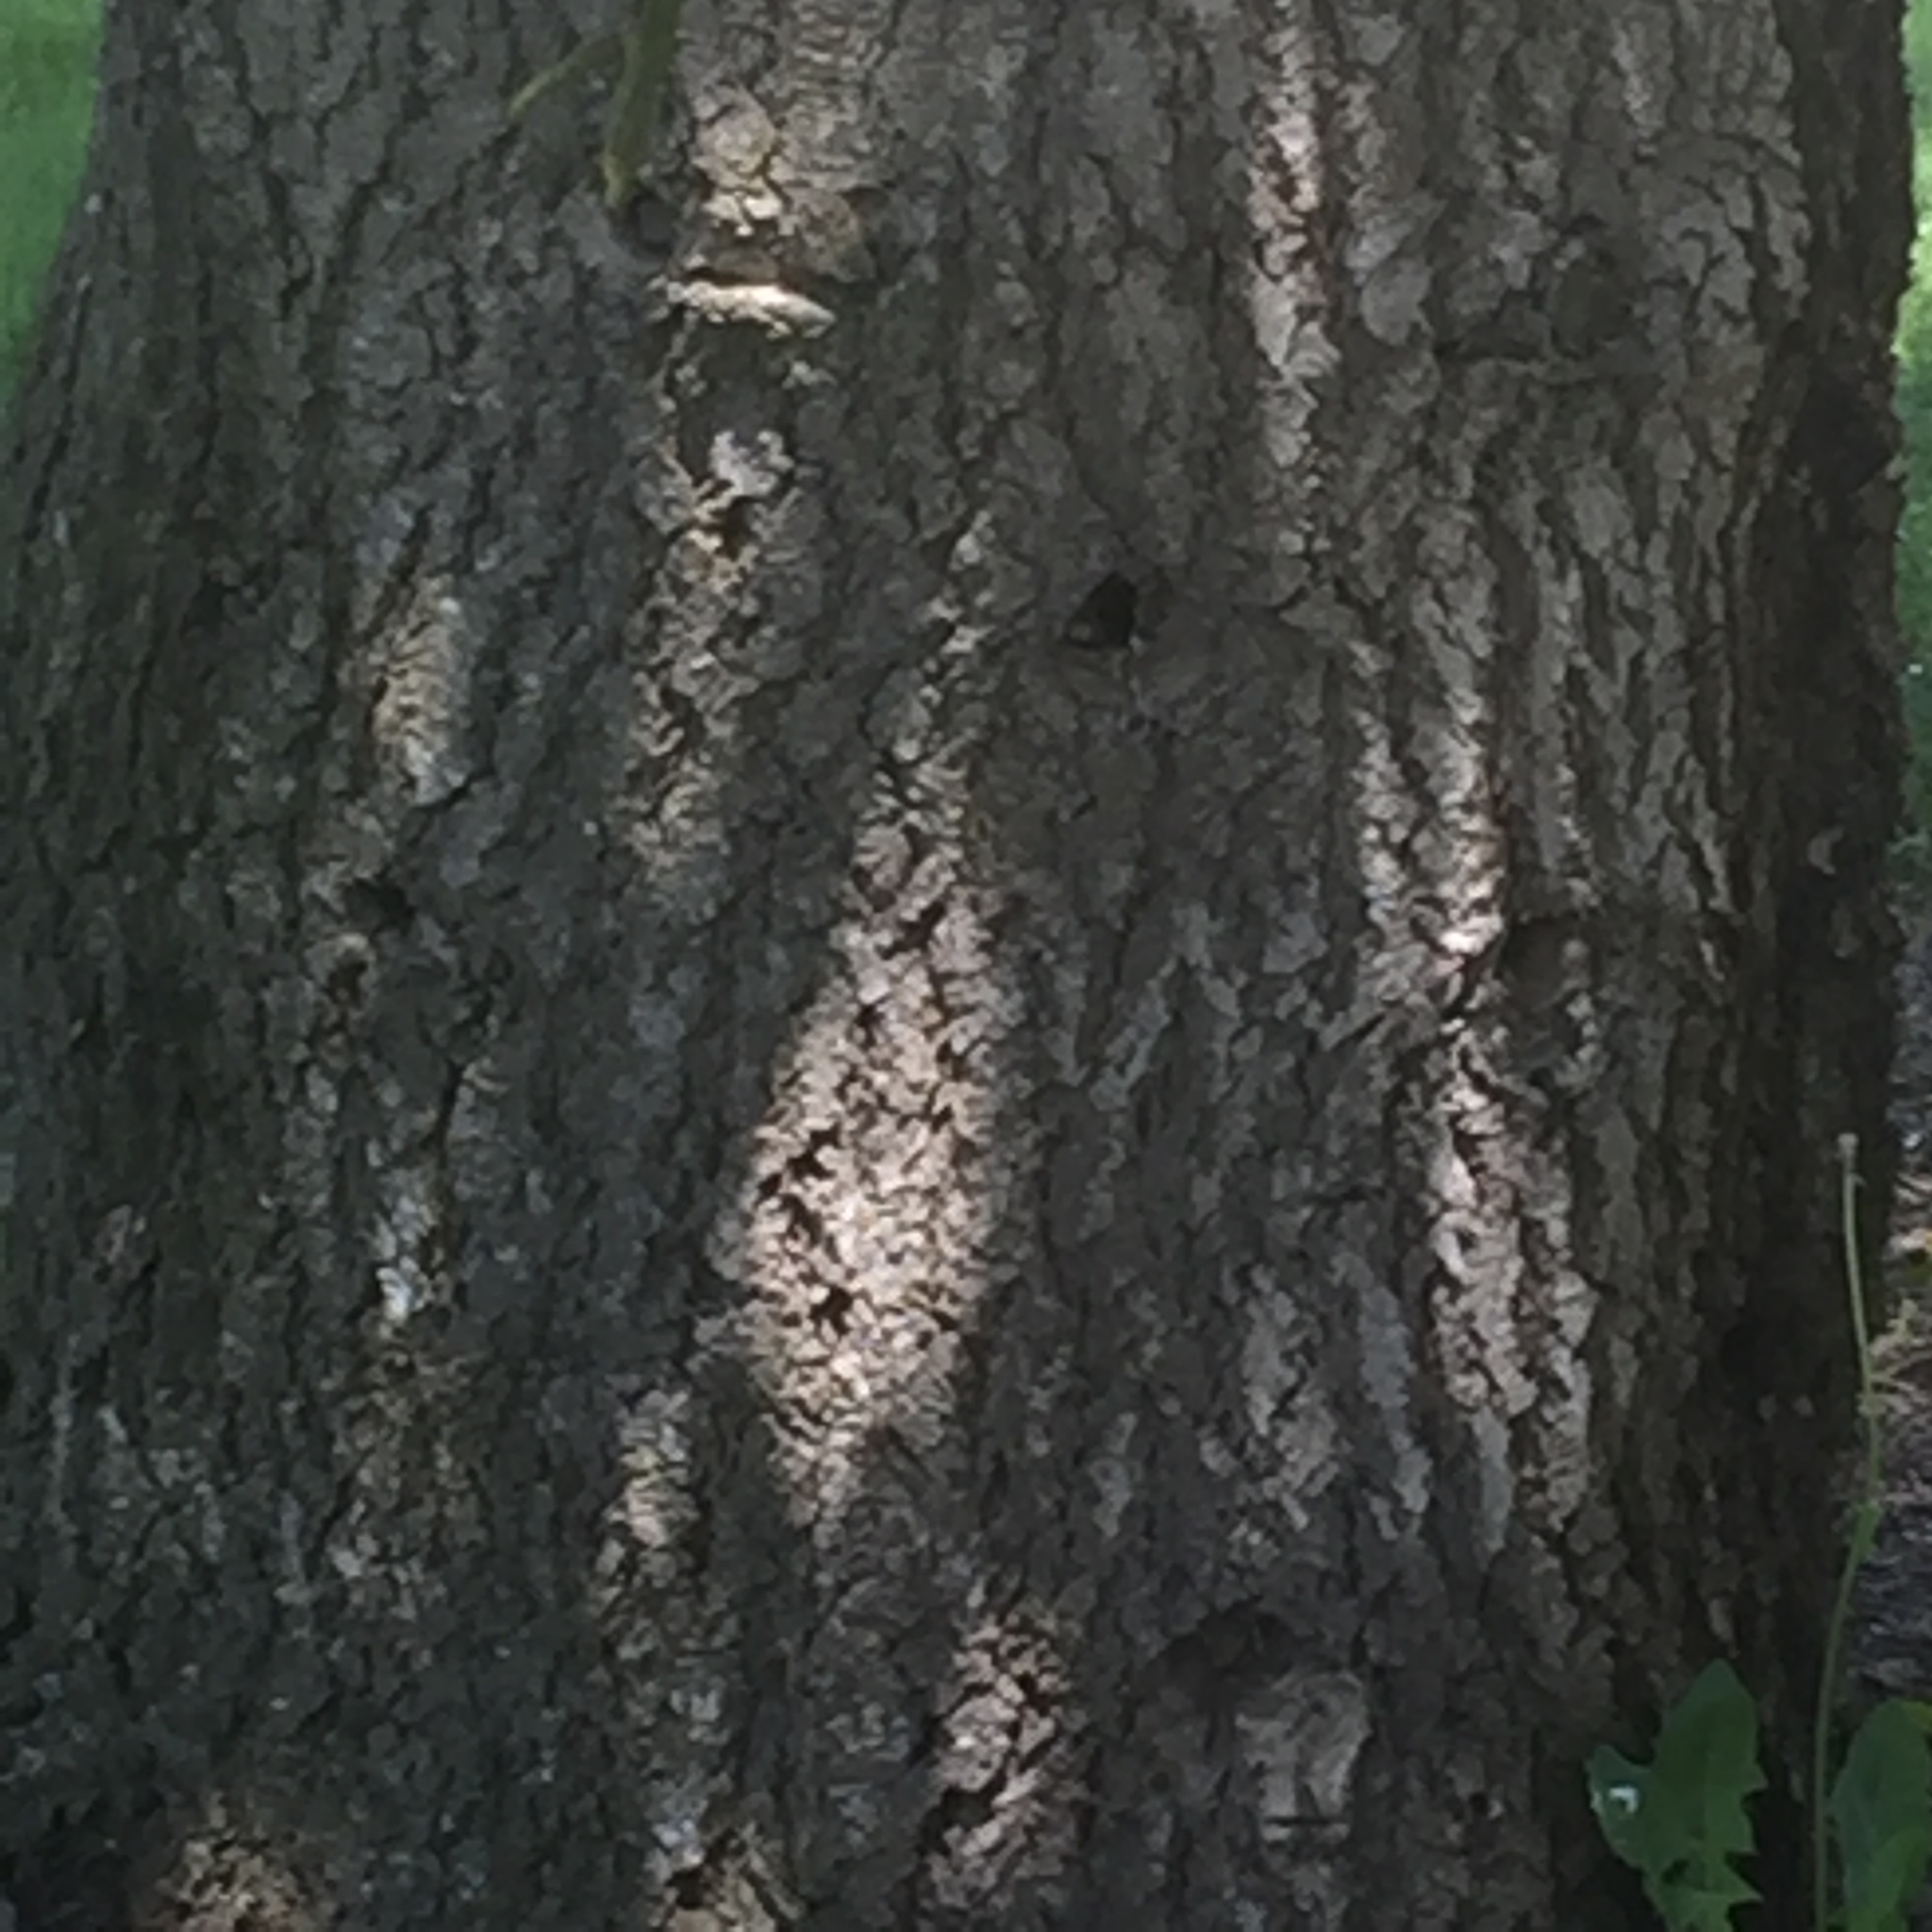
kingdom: Plantae
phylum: Tracheophyta
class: Pinopsida
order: Pinales
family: Pinaceae
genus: Abies
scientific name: Abies concolor
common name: Colorado fir
